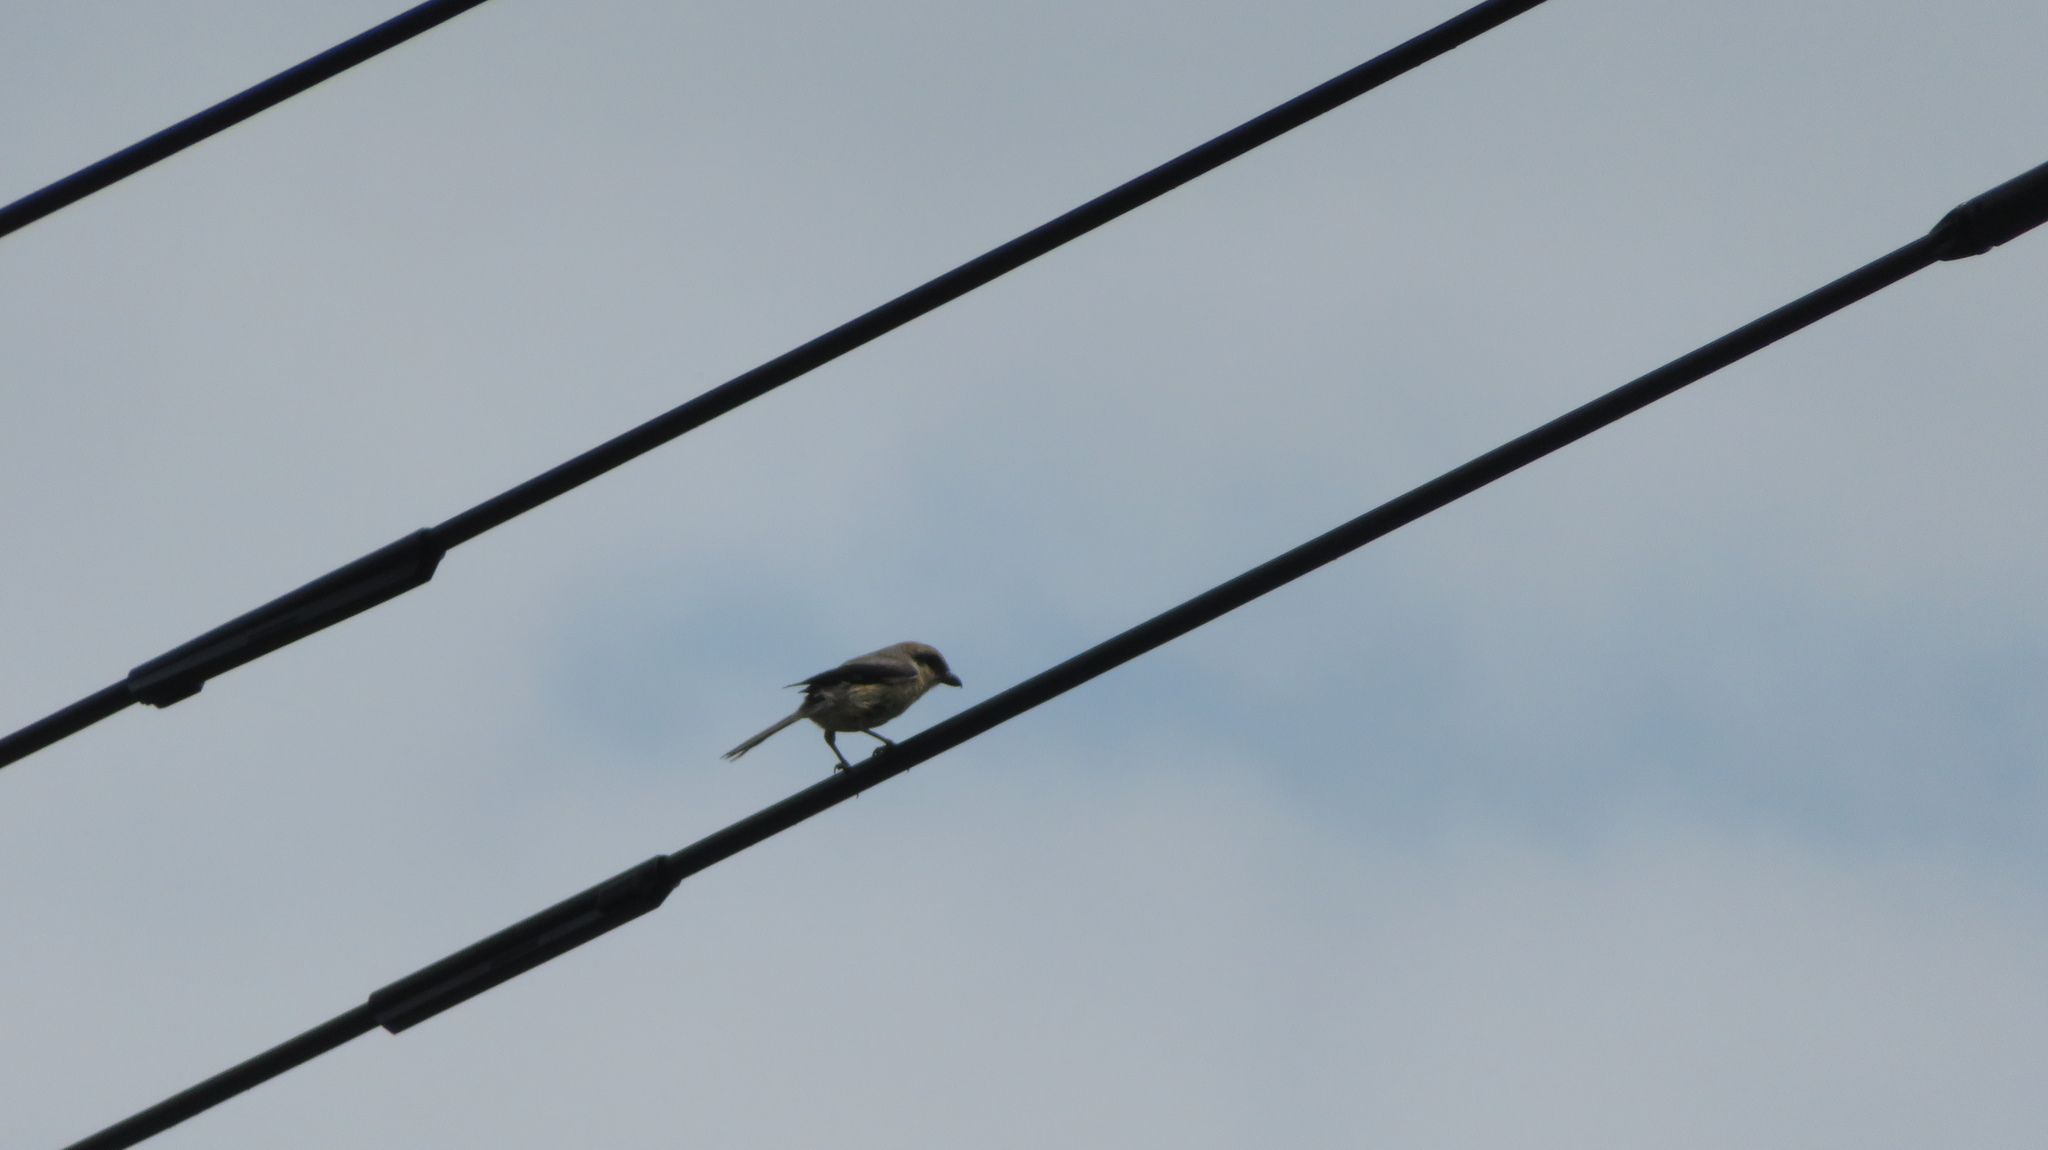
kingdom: Animalia
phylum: Chordata
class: Aves
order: Passeriformes
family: Laniidae
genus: Lanius
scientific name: Lanius bucephalus
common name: Bull-headed shrike
